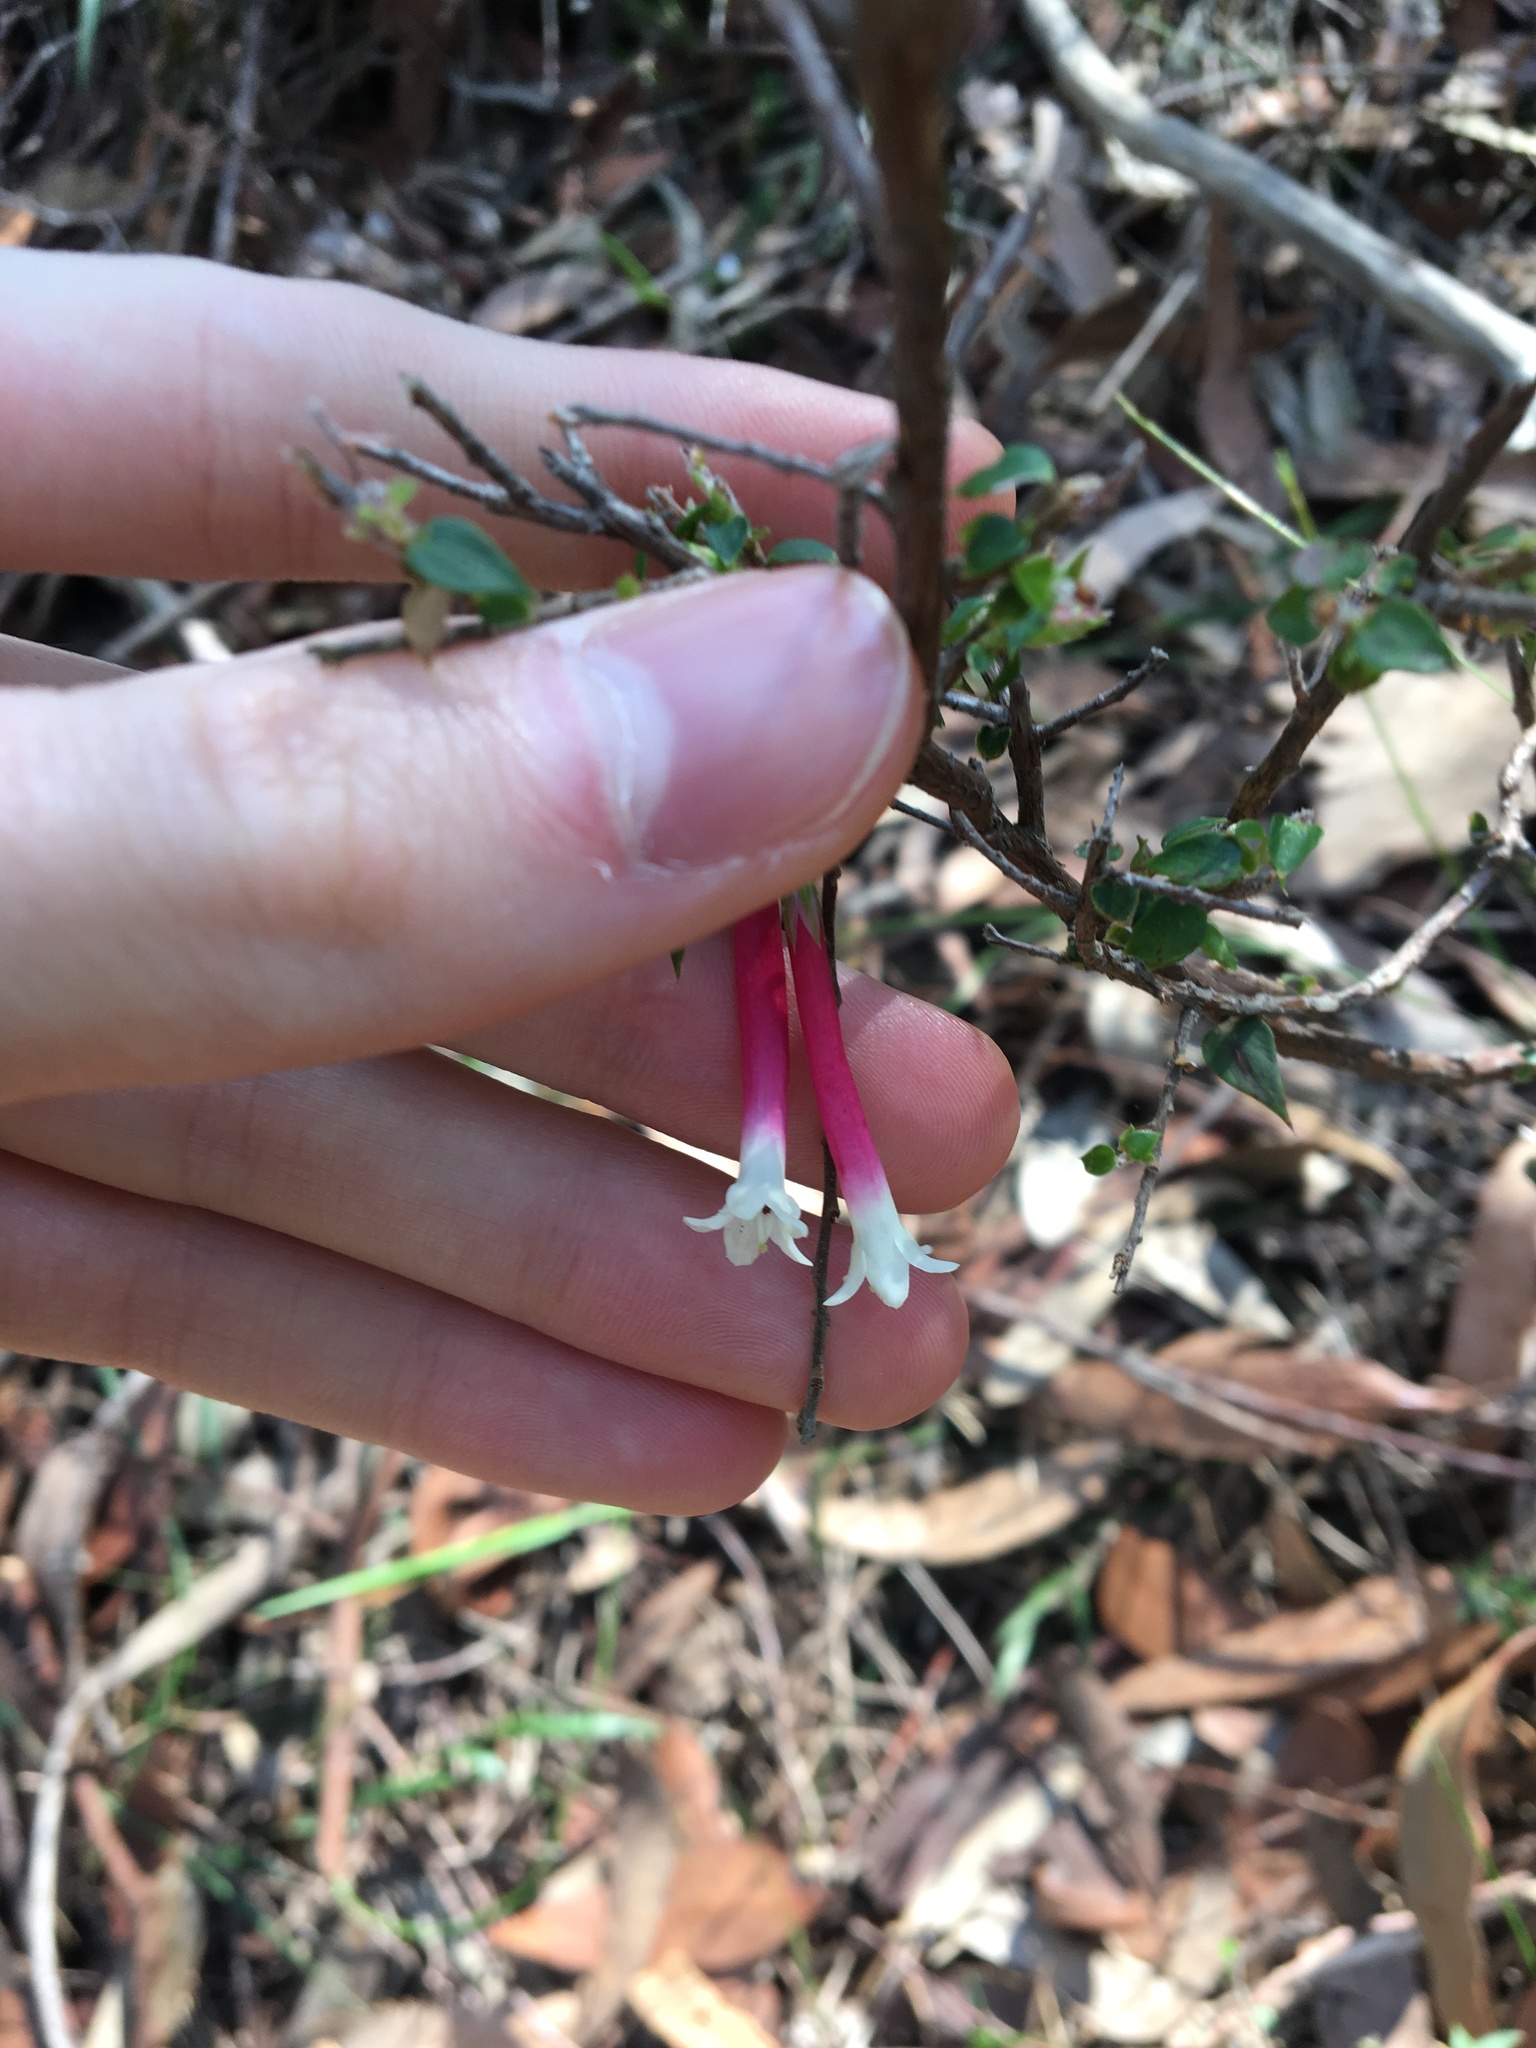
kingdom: Plantae
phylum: Tracheophyta
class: Magnoliopsida
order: Ericales
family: Ericaceae
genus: Epacris
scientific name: Epacris longiflora
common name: Fuchsia-heath
